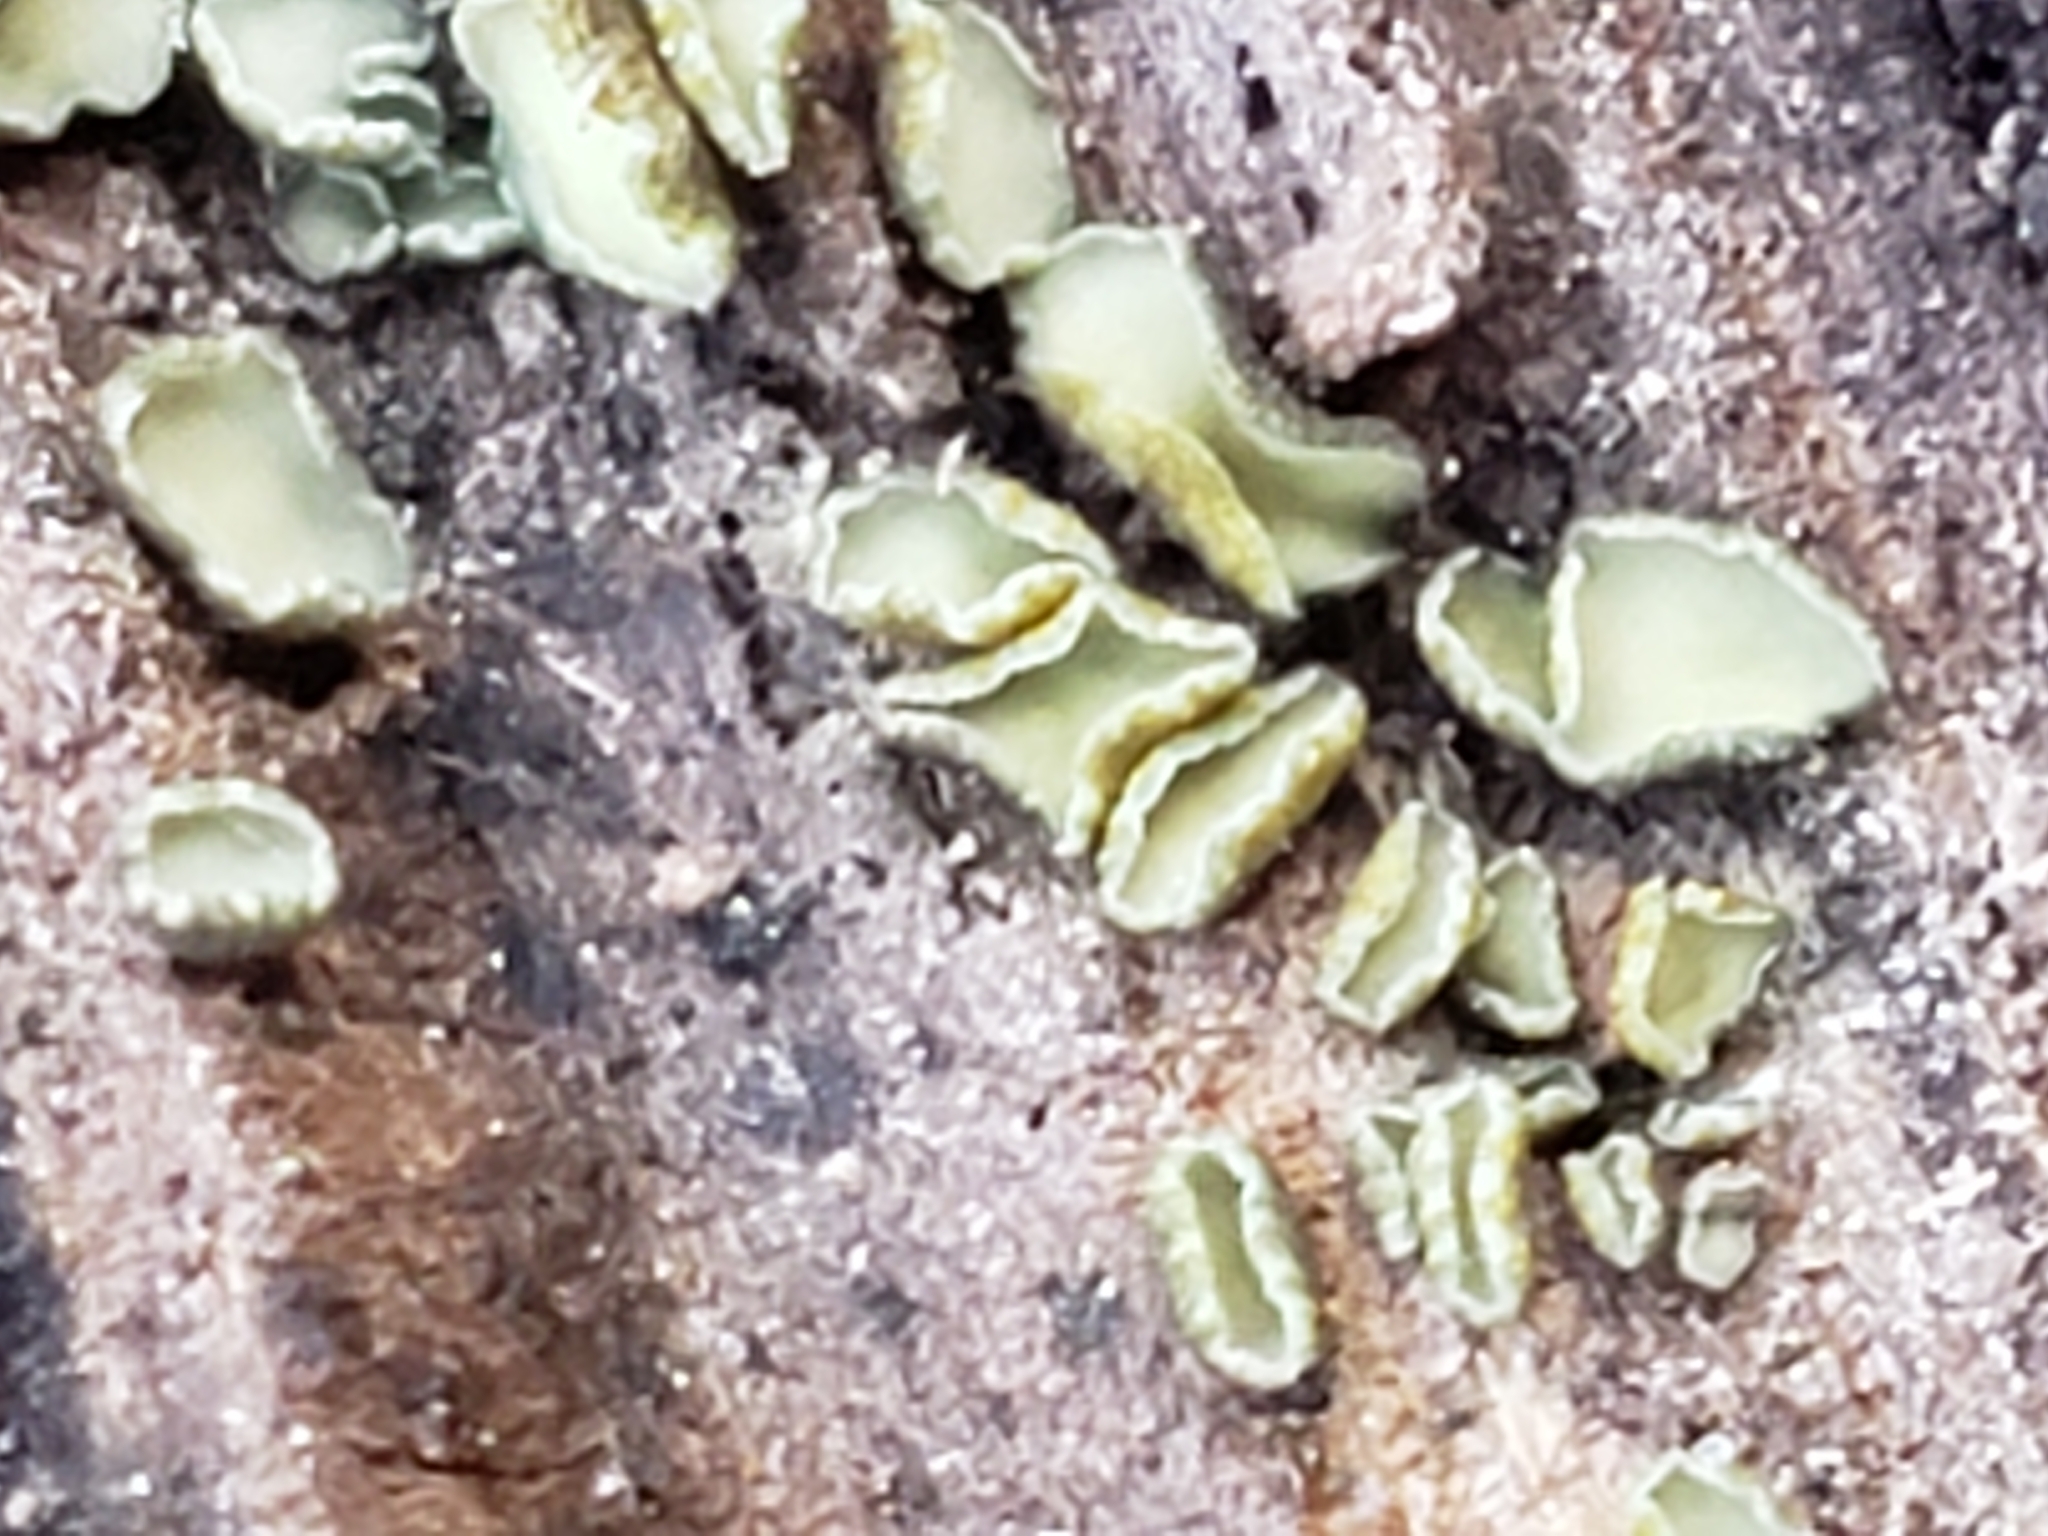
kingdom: Fungi
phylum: Ascomycota
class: Leotiomycetes
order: Helotiales
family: Chlorospleniaceae
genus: Chlorosplenium
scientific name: Chlorosplenium chlora
